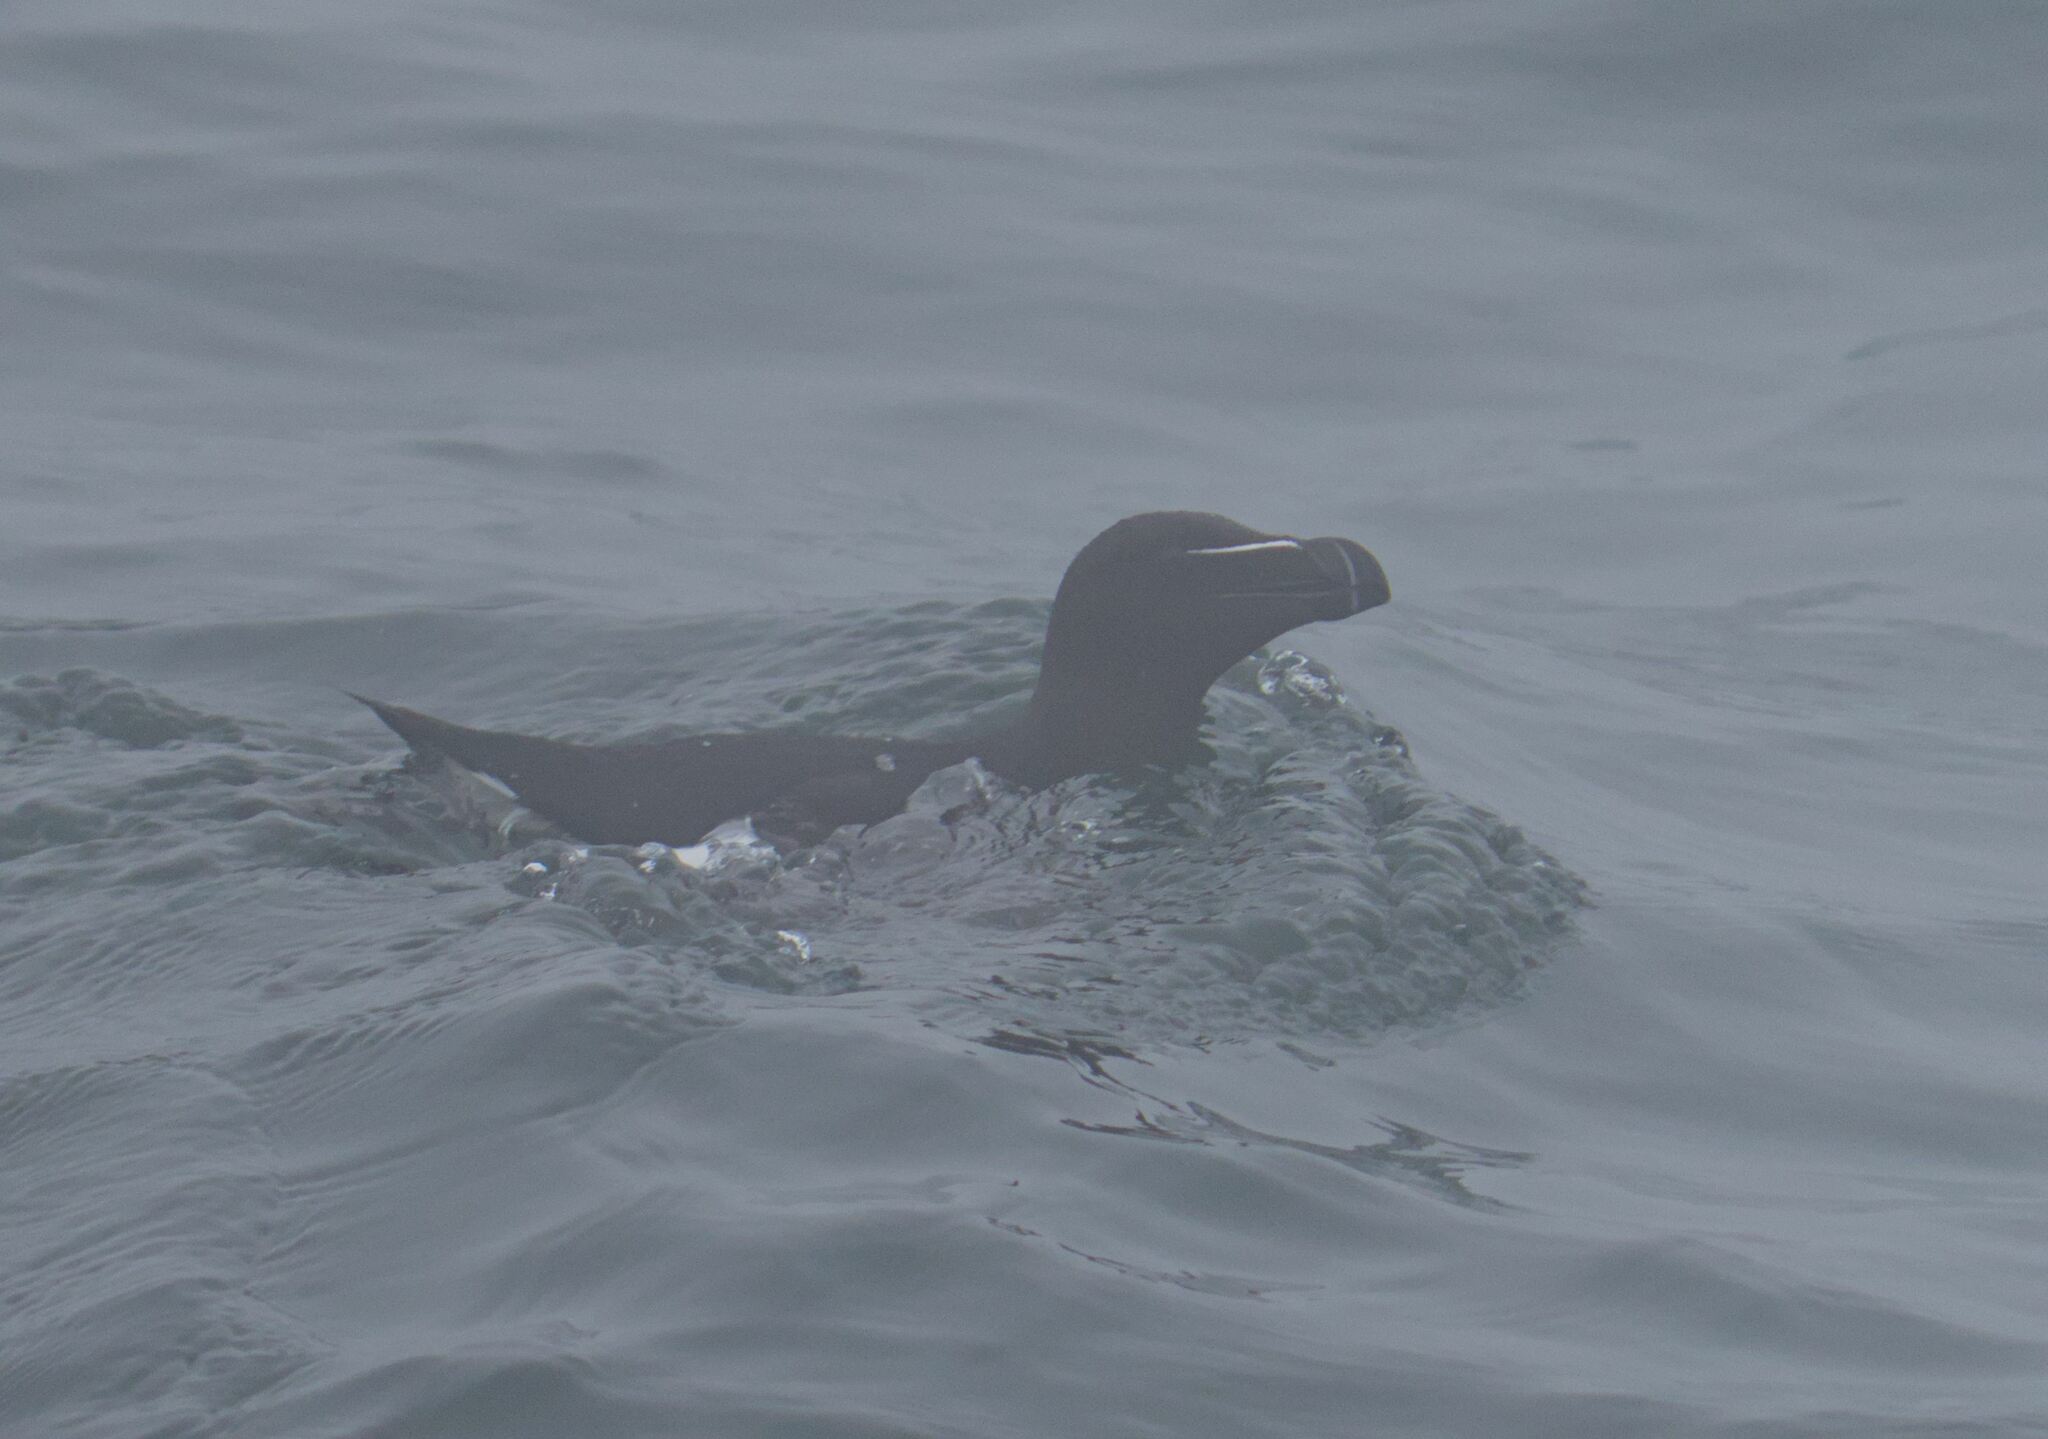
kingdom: Animalia
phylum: Chordata
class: Aves
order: Charadriiformes
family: Alcidae
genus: Alca
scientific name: Alca torda
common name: Razorbill
